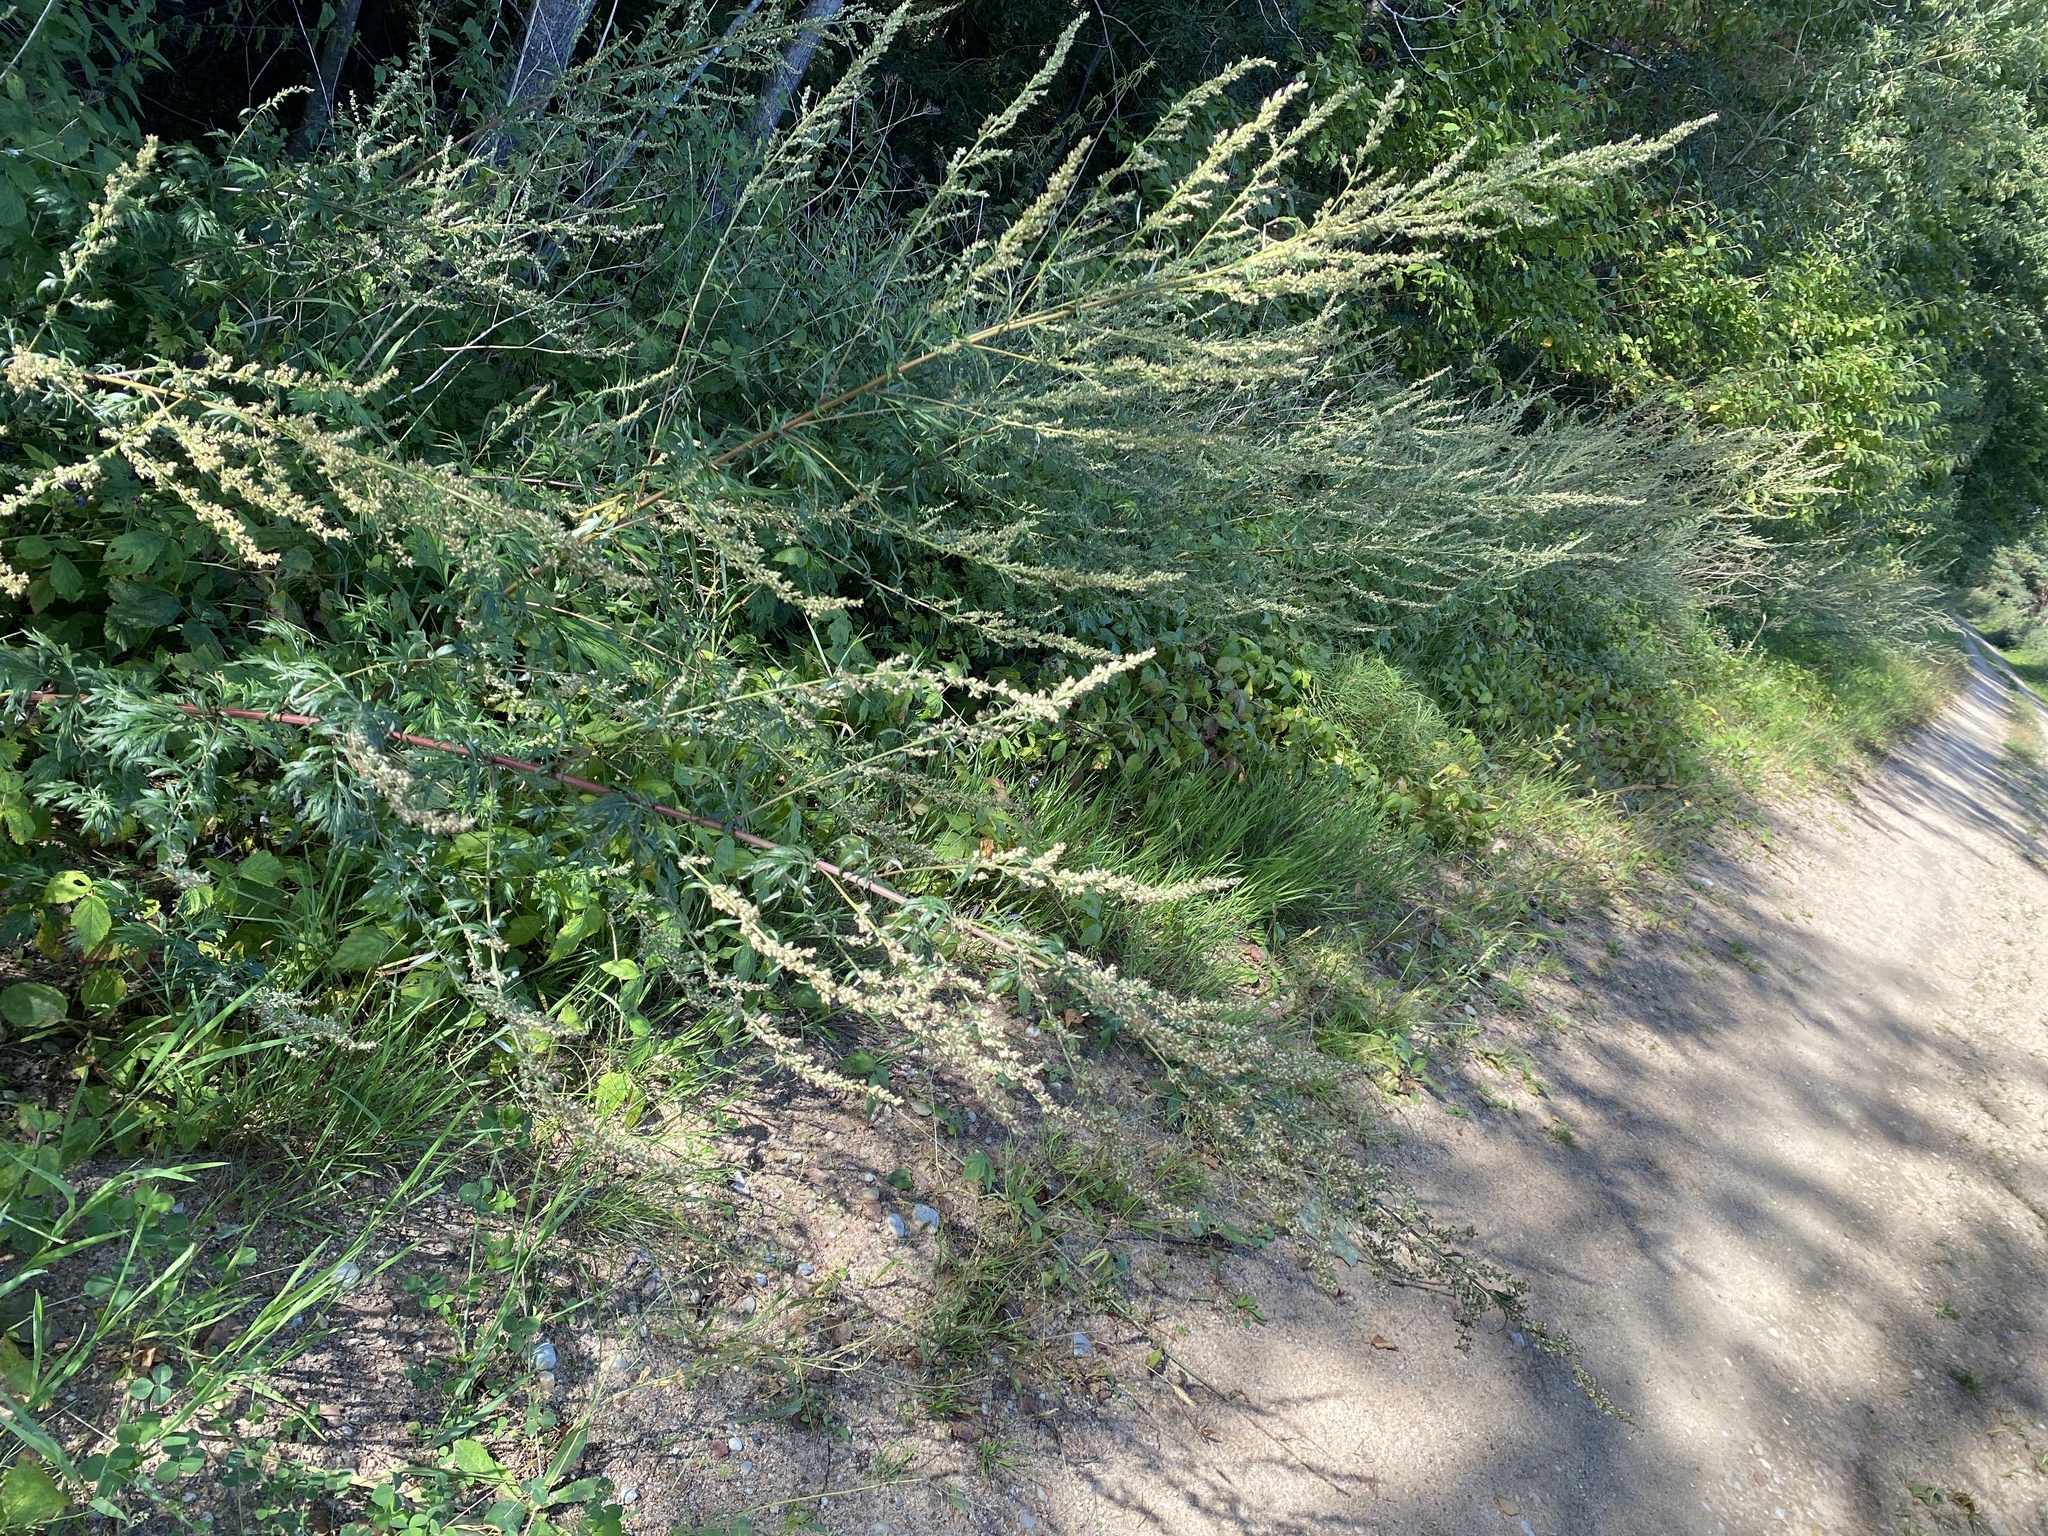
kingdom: Plantae
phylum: Tracheophyta
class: Magnoliopsida
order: Asterales
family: Asteraceae
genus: Artemisia
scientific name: Artemisia vulgaris
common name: Mugwort
